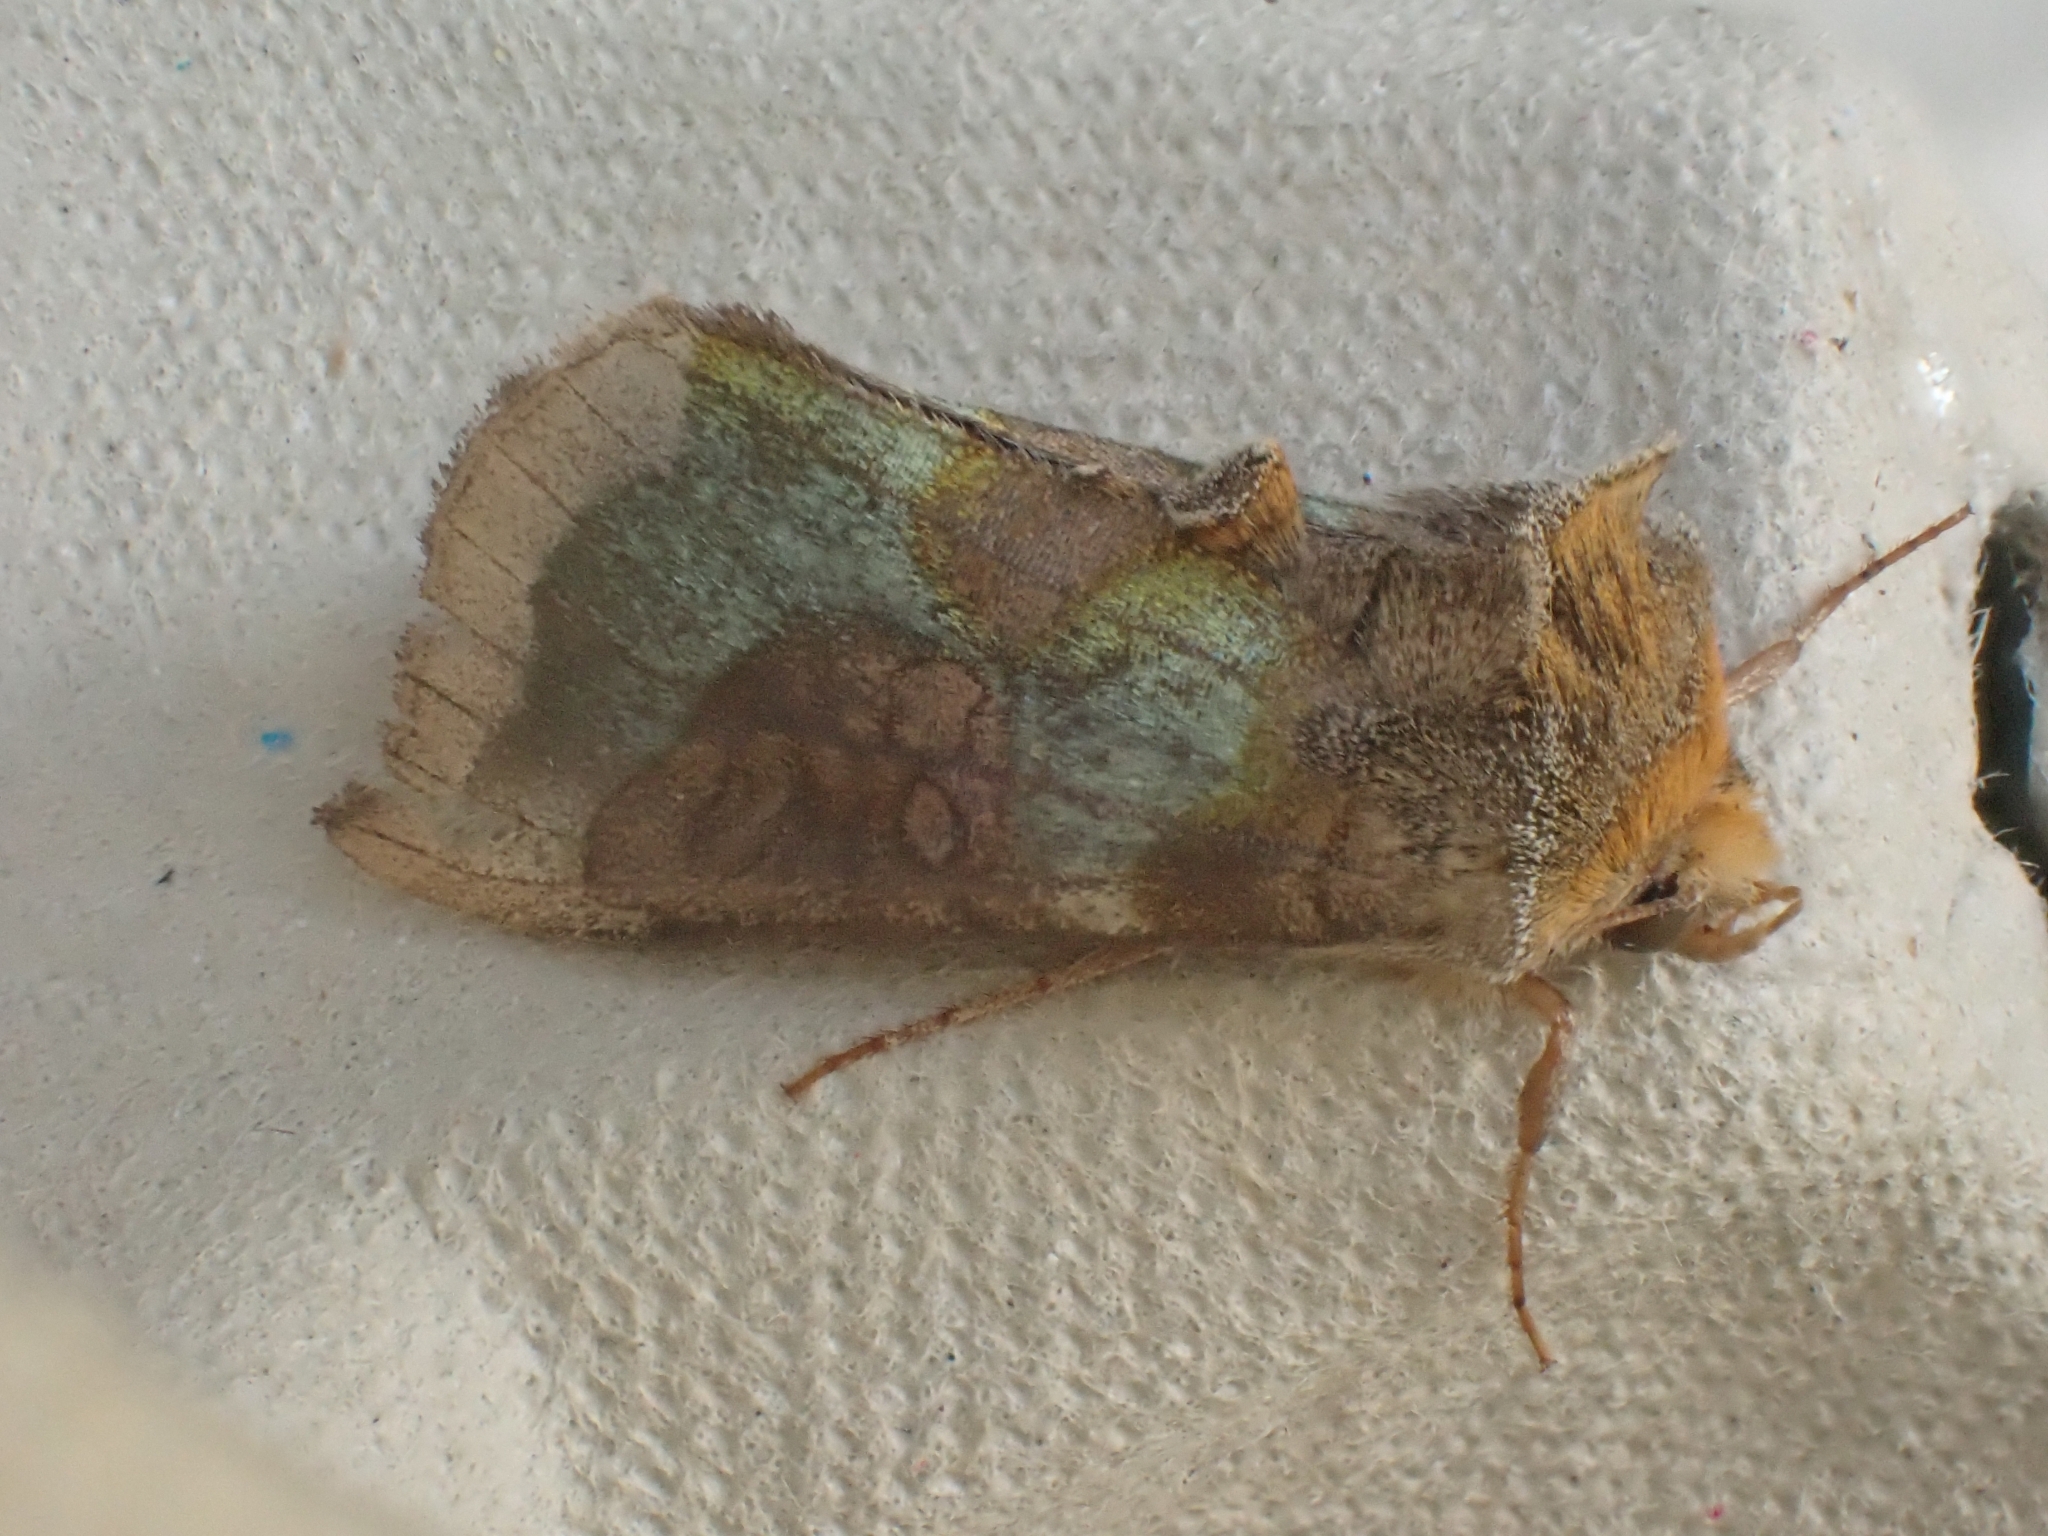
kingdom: Animalia
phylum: Arthropoda
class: Insecta
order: Lepidoptera
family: Noctuidae
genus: Diachrysia
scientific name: Diachrysia chrysitis
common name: Burnished brass
